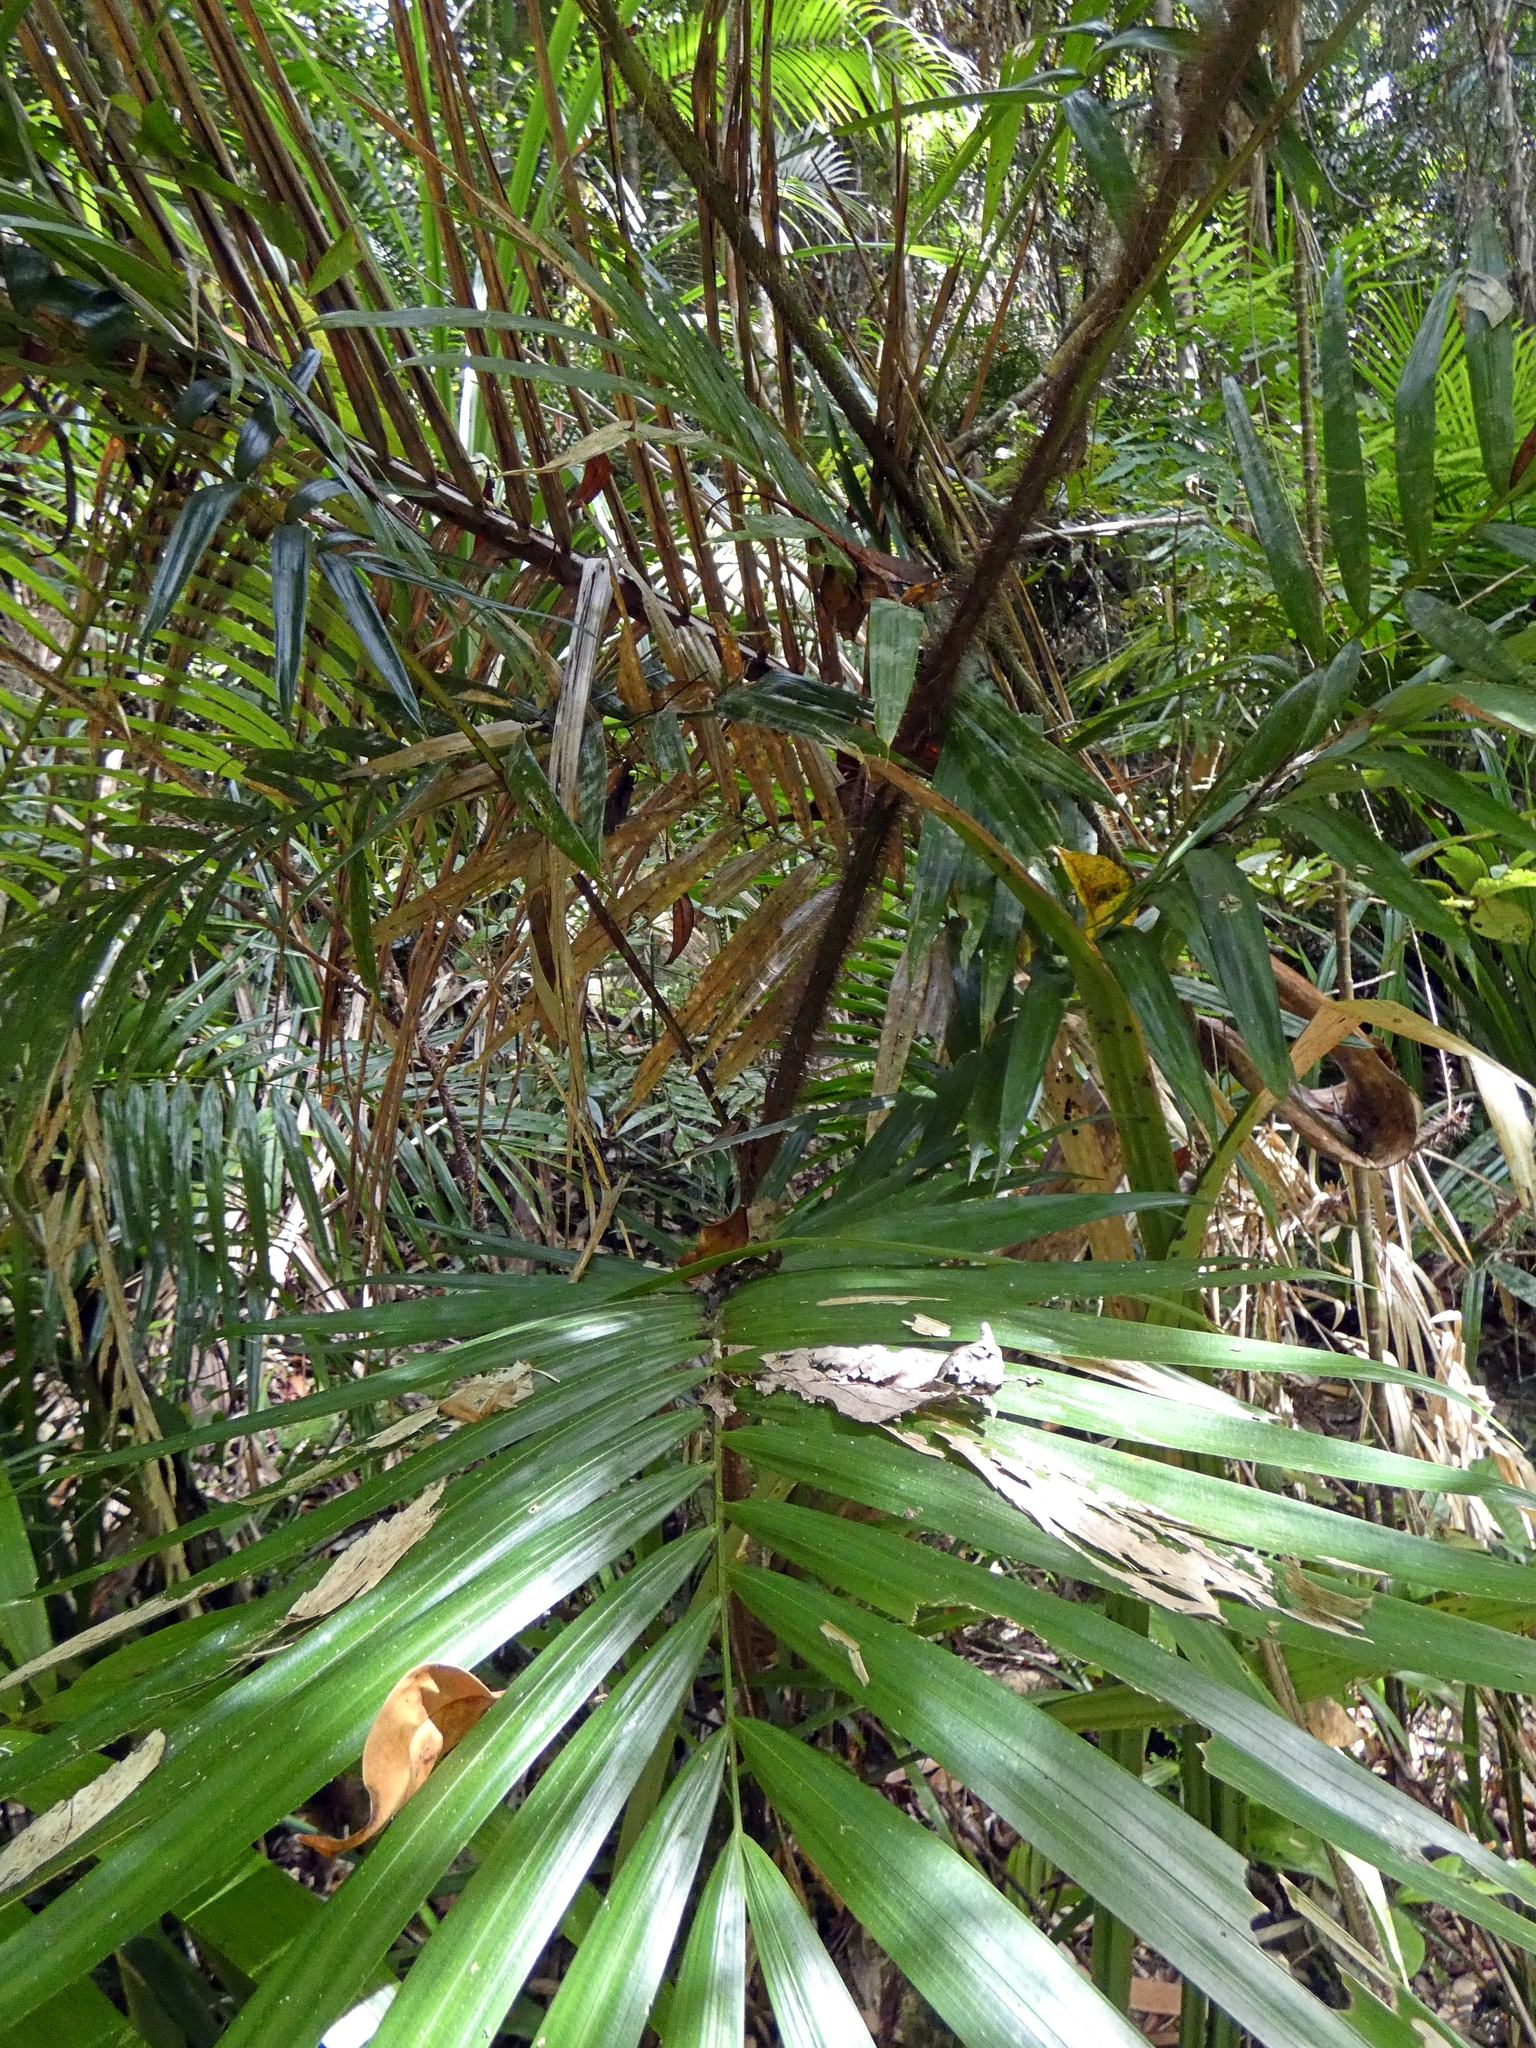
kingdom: Plantae
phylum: Tracheophyta
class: Liliopsida
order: Arecales
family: Arecaceae
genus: Calamus
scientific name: Calamus australis
